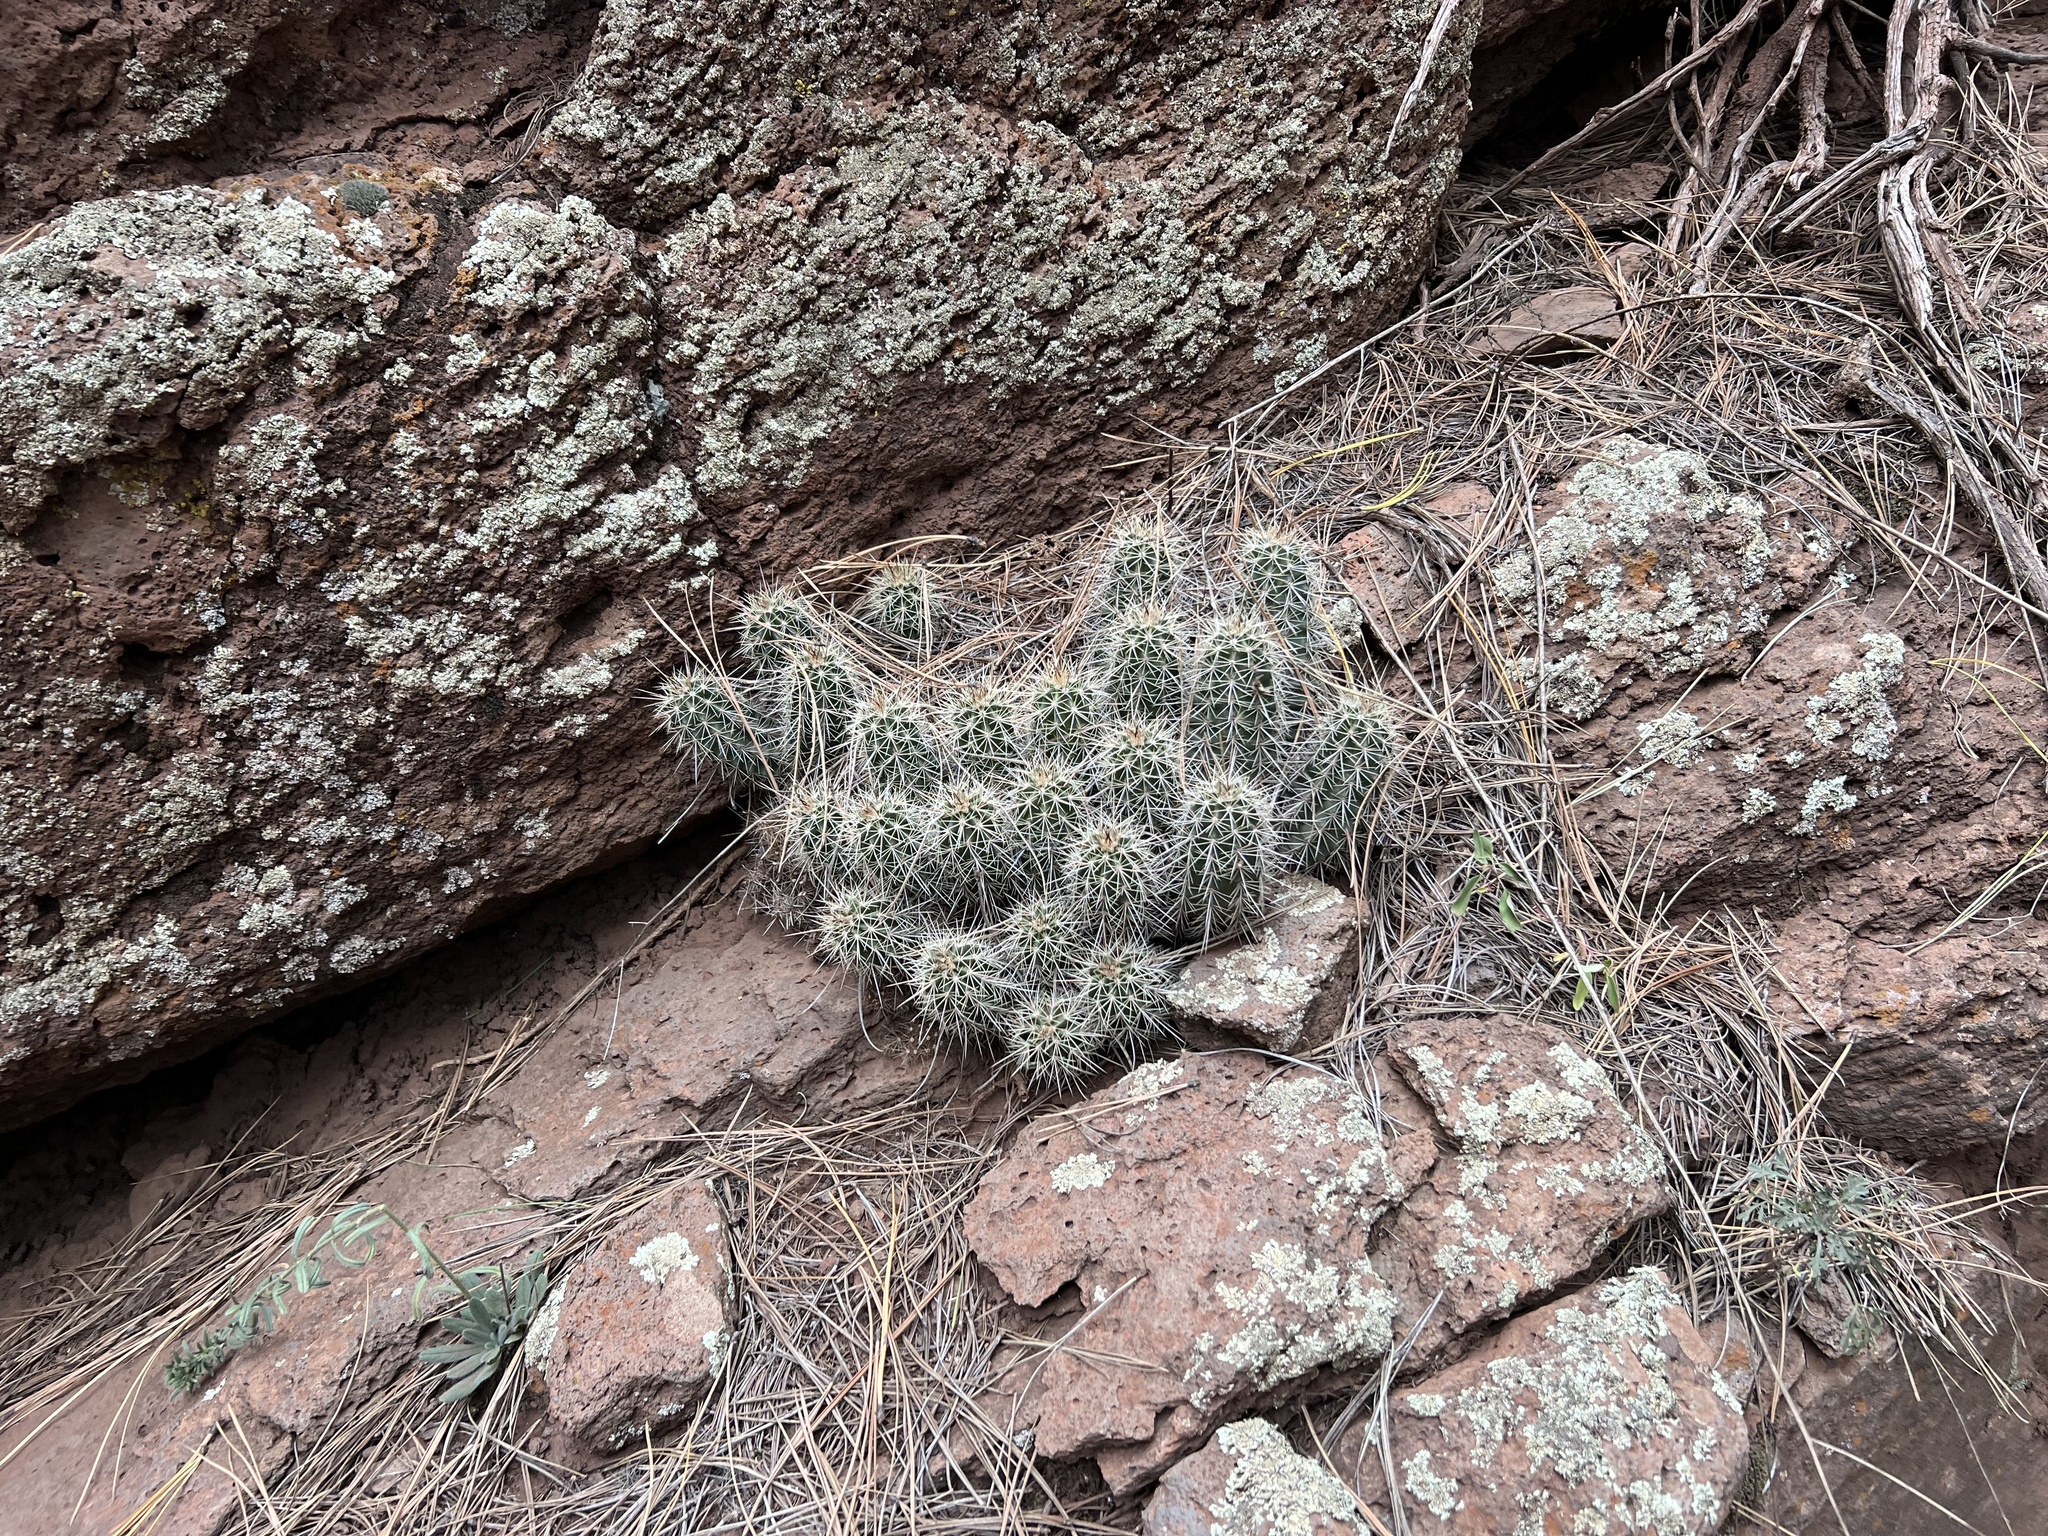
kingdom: Plantae
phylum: Tracheophyta
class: Magnoliopsida
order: Caryophyllales
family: Cactaceae
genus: Echinocereus
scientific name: Echinocereus bakeri
